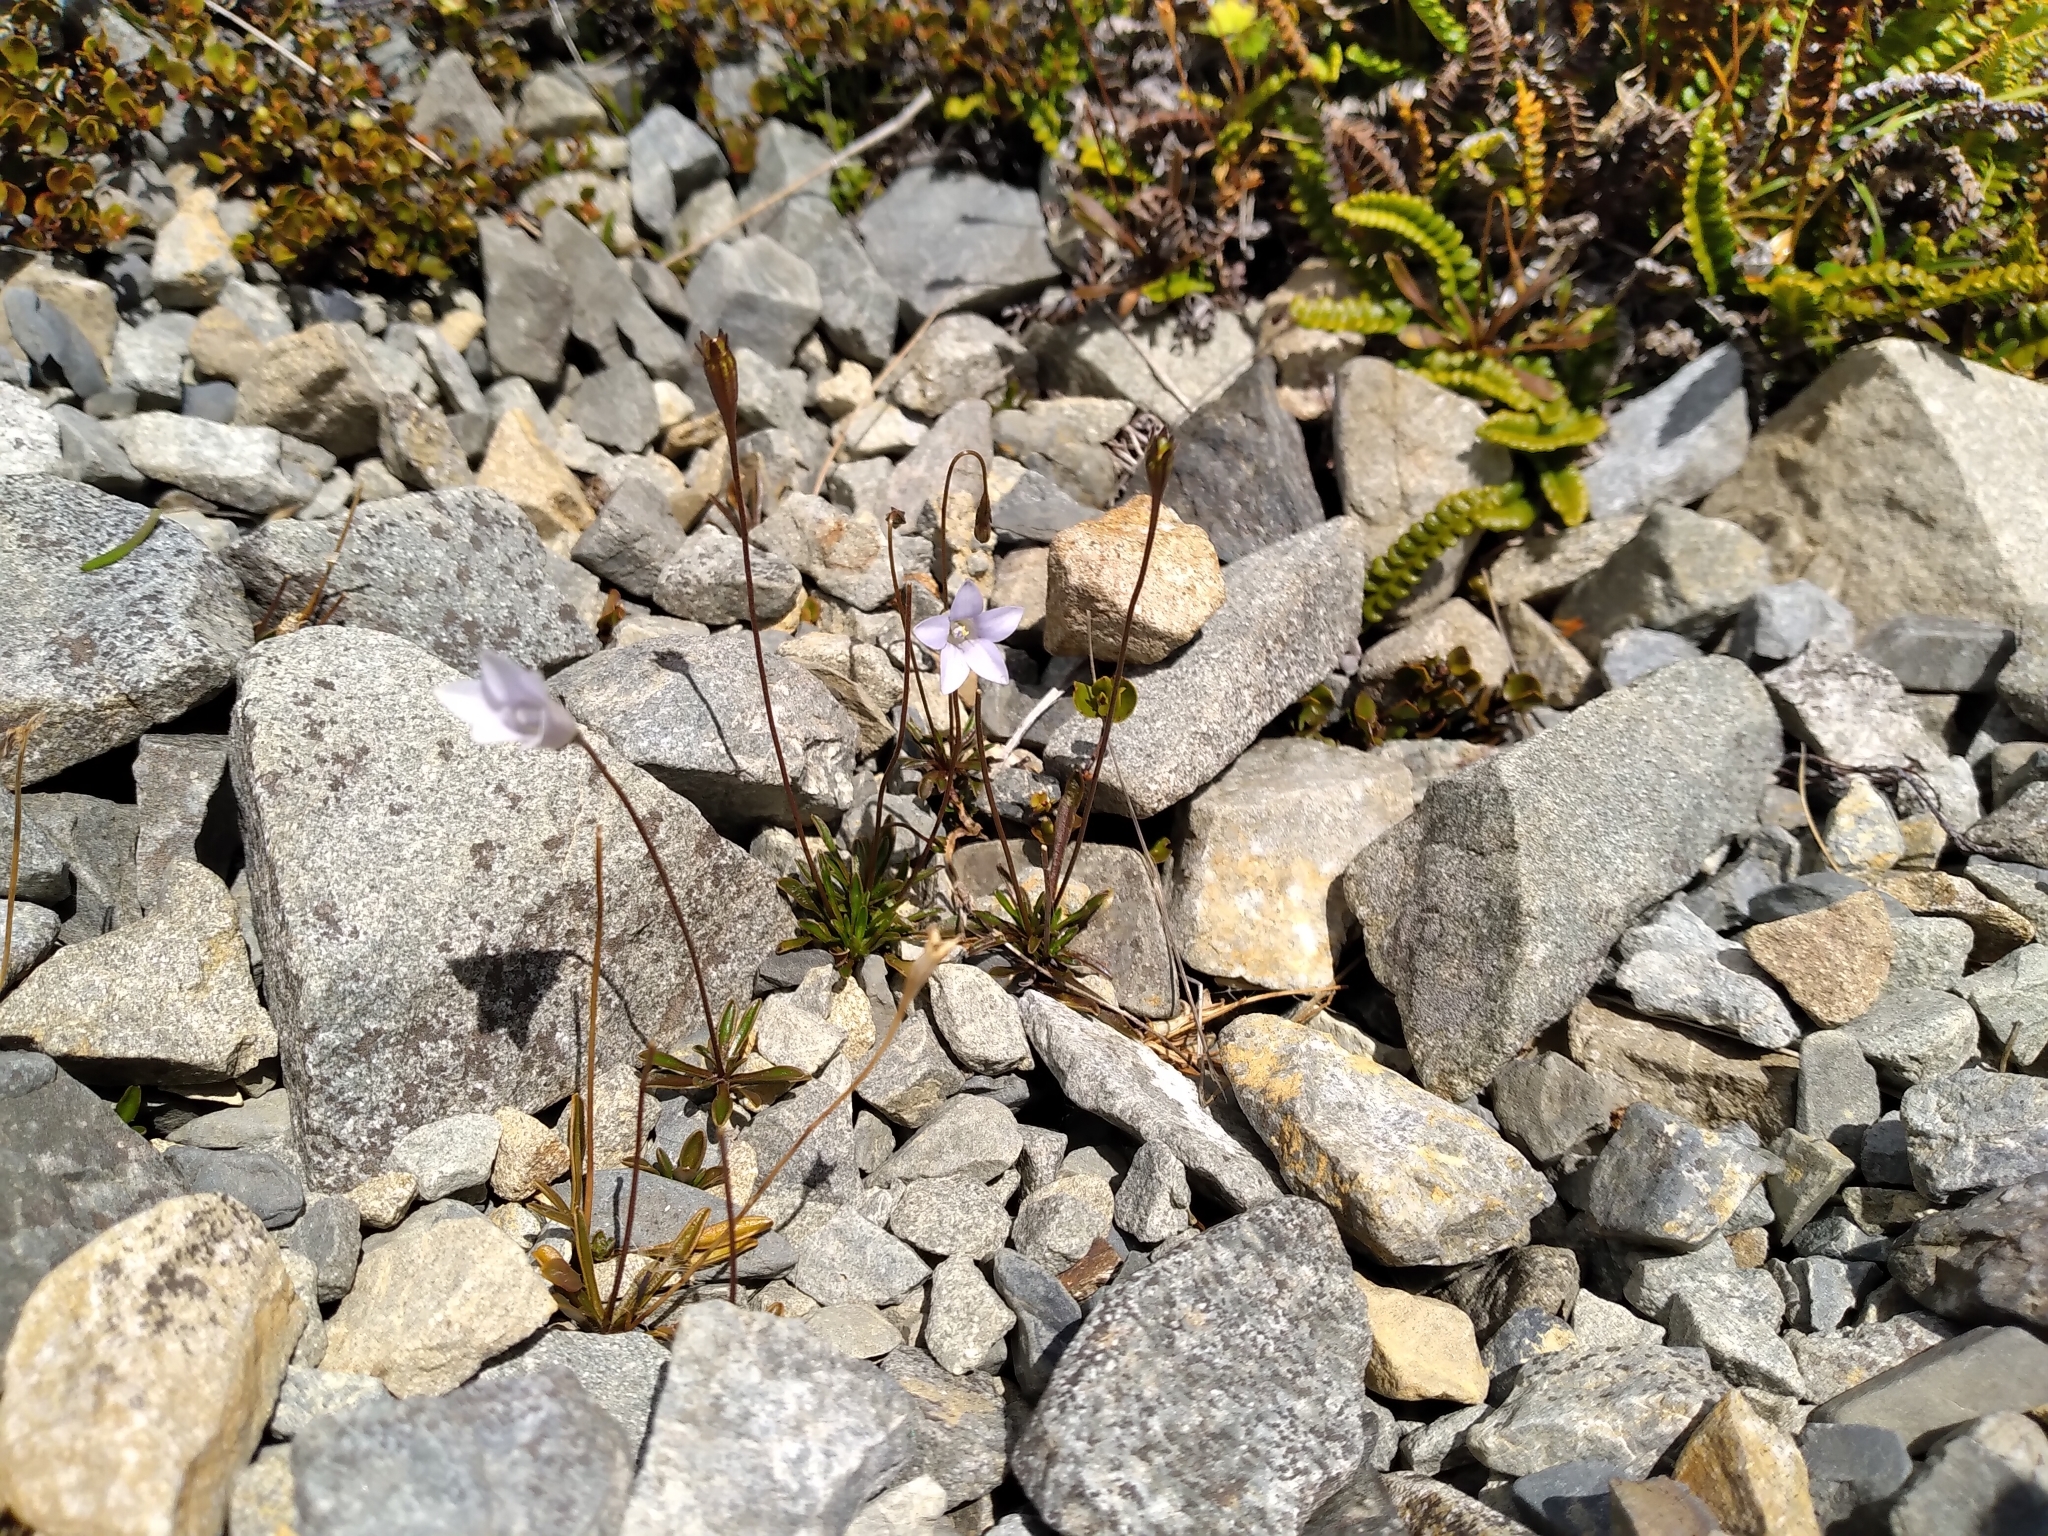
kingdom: Plantae
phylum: Tracheophyta
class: Magnoliopsida
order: Asterales
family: Campanulaceae
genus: Wahlenbergia
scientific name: Wahlenbergia albomarginata
